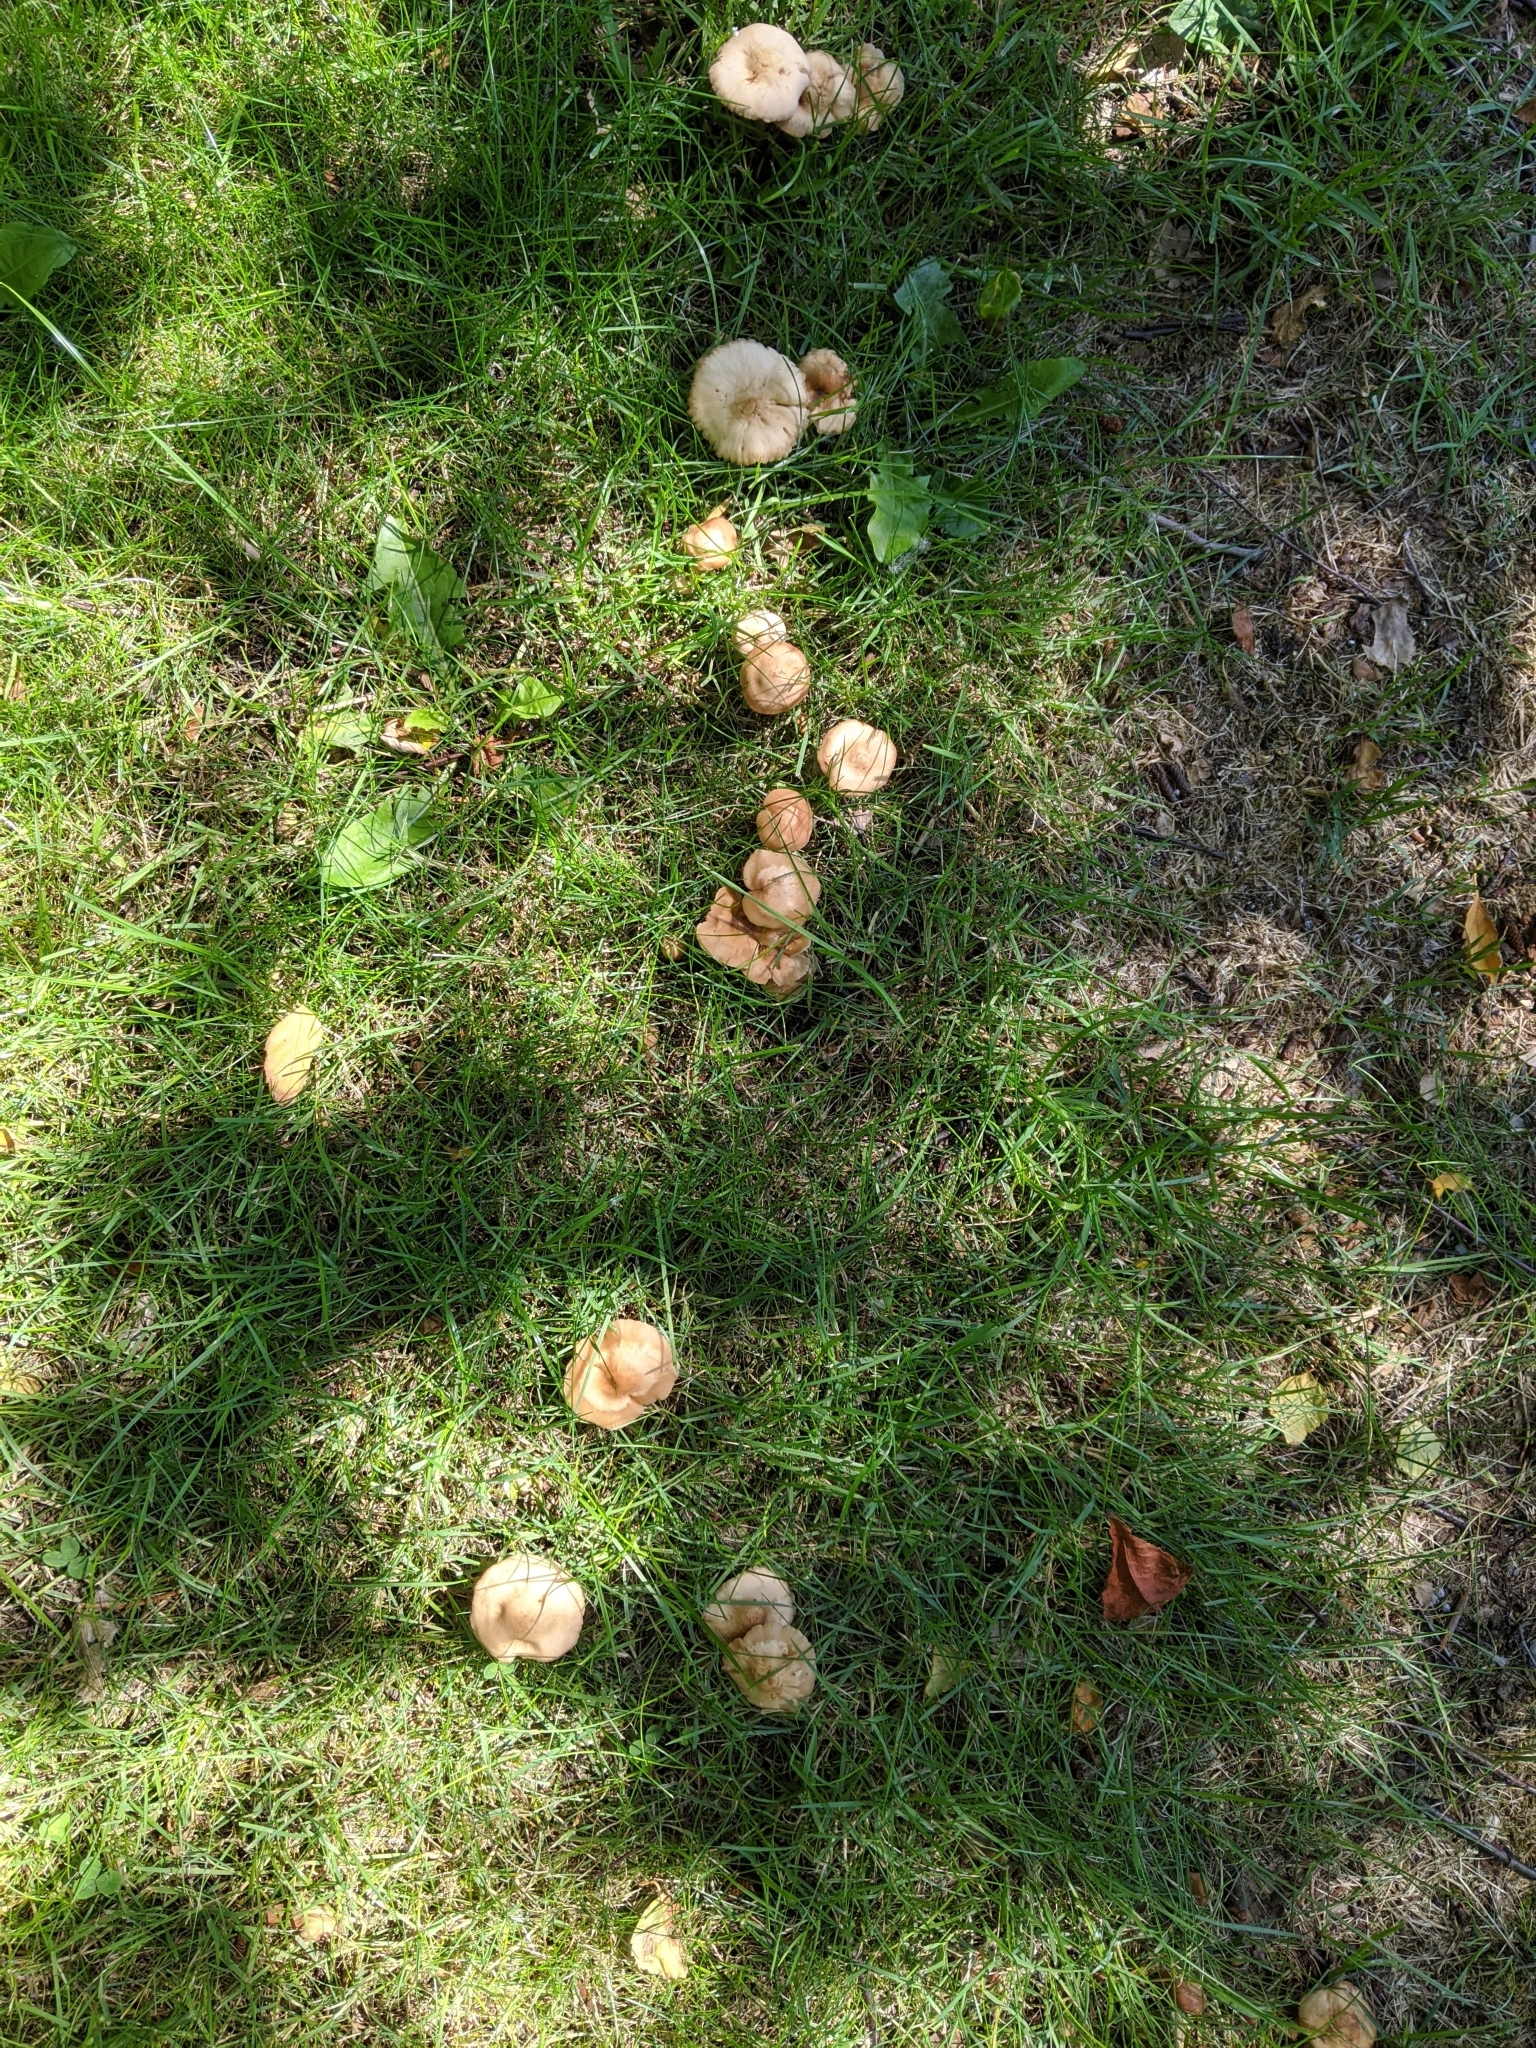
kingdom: Fungi
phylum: Basidiomycota
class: Agaricomycetes
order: Agaricales
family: Marasmiaceae
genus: Marasmius
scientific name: Marasmius oreades
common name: Fairy ring champignon
